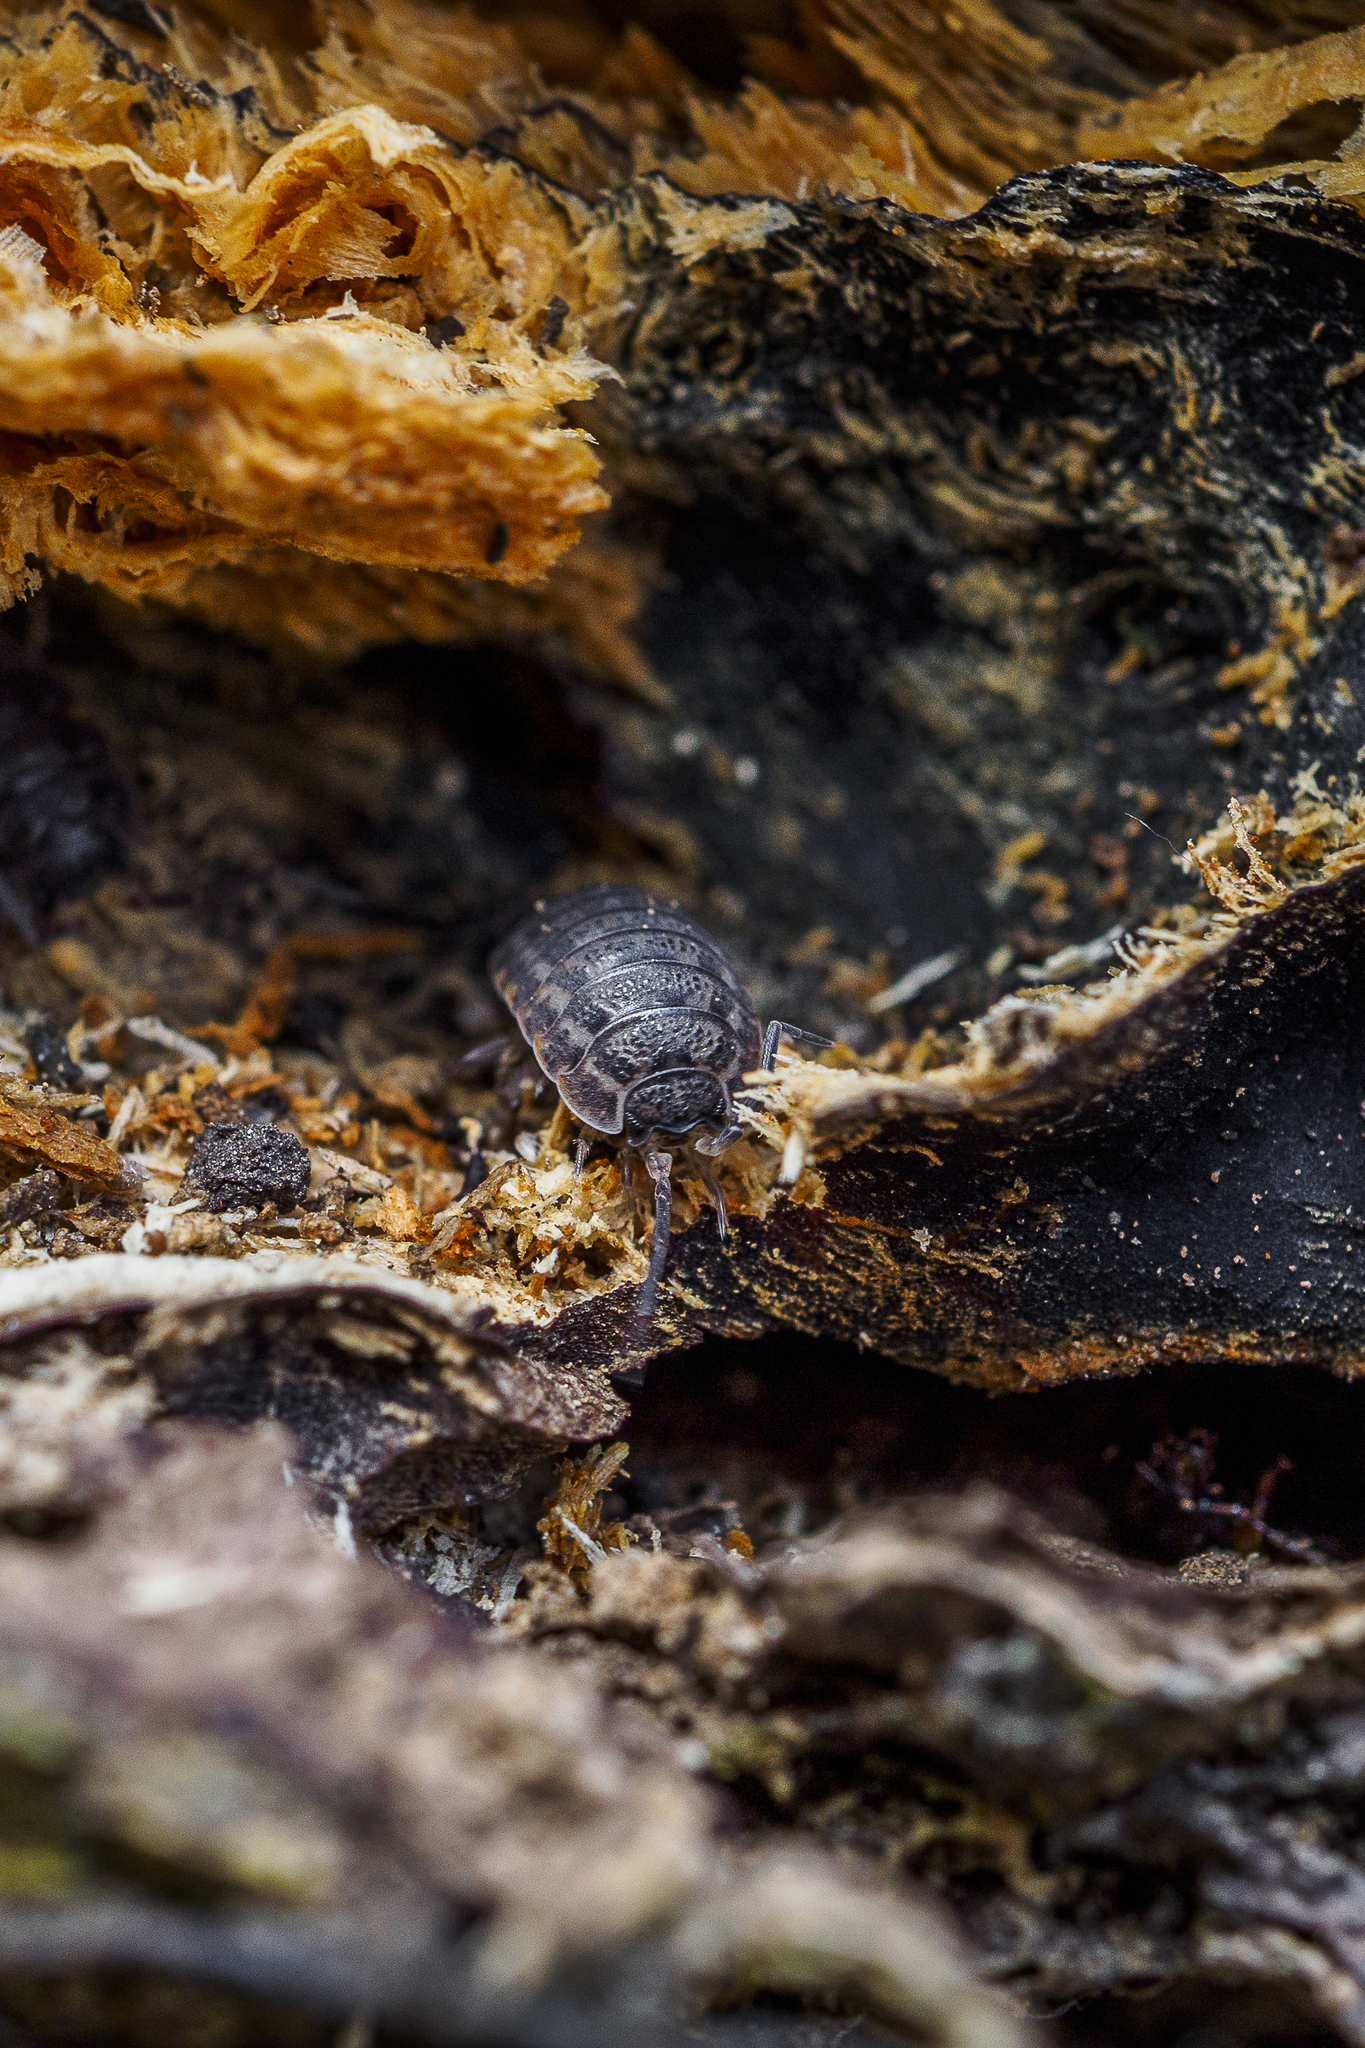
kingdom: Animalia
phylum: Arthropoda
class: Malacostraca
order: Isopoda
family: Trachelipodidae
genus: Trachelipus
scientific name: Trachelipus rathkii
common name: Isopod
